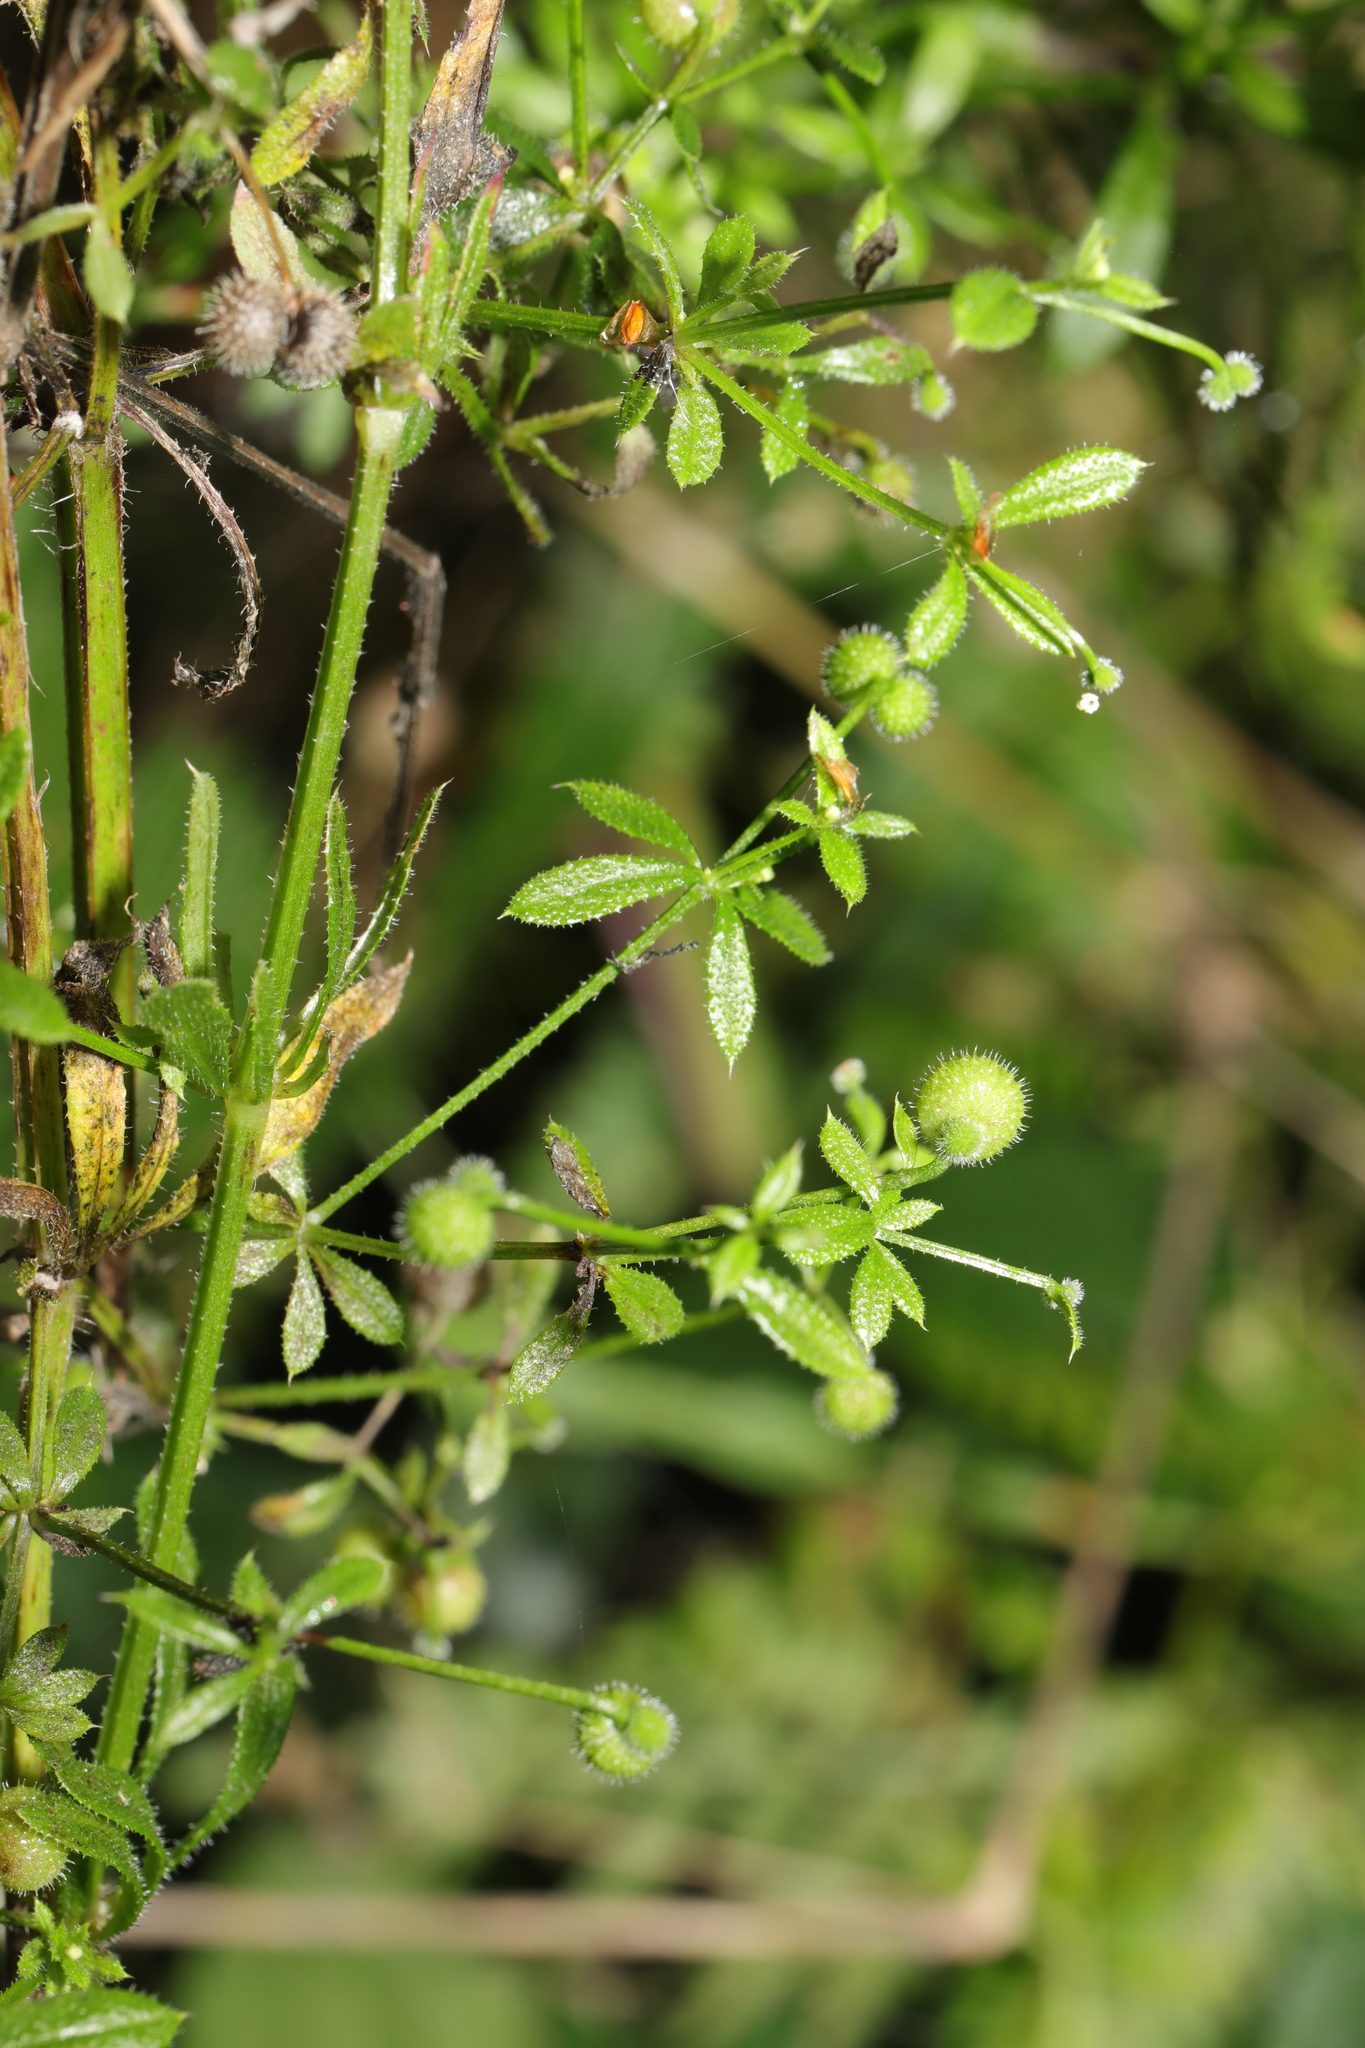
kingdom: Plantae
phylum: Tracheophyta
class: Magnoliopsida
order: Gentianales
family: Rubiaceae
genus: Galium
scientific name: Galium aparine
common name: Cleavers
